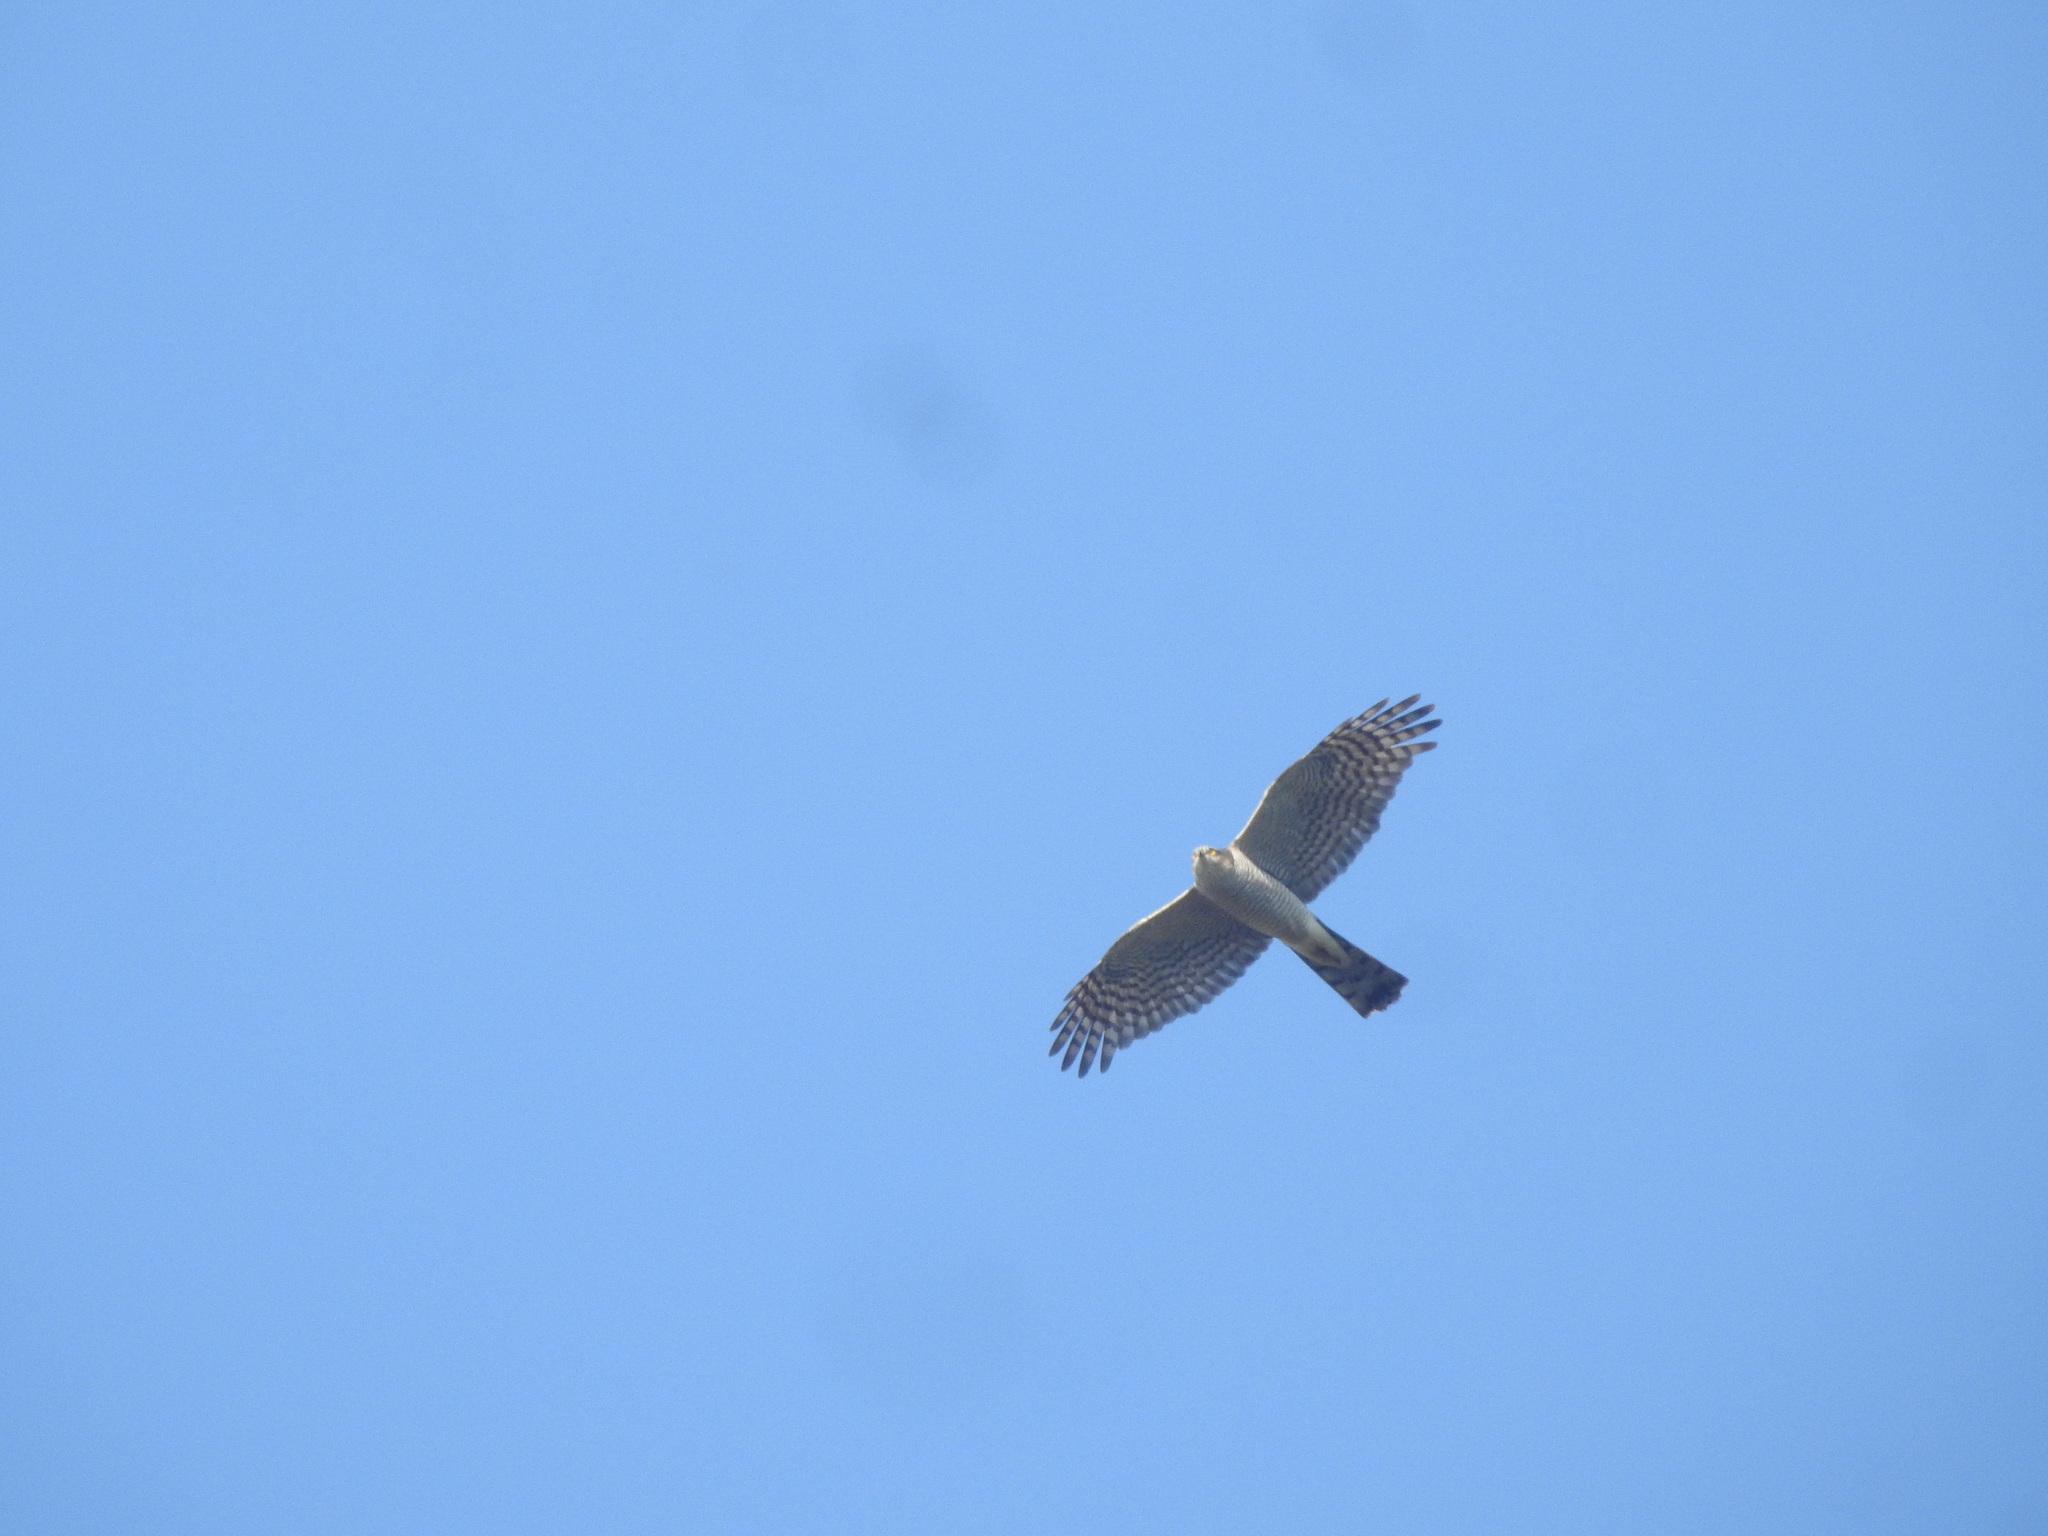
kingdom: Animalia
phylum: Chordata
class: Aves
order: Accipitriformes
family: Accipitridae
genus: Accipiter
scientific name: Accipiter nisus
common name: Eurasian sparrowhawk
